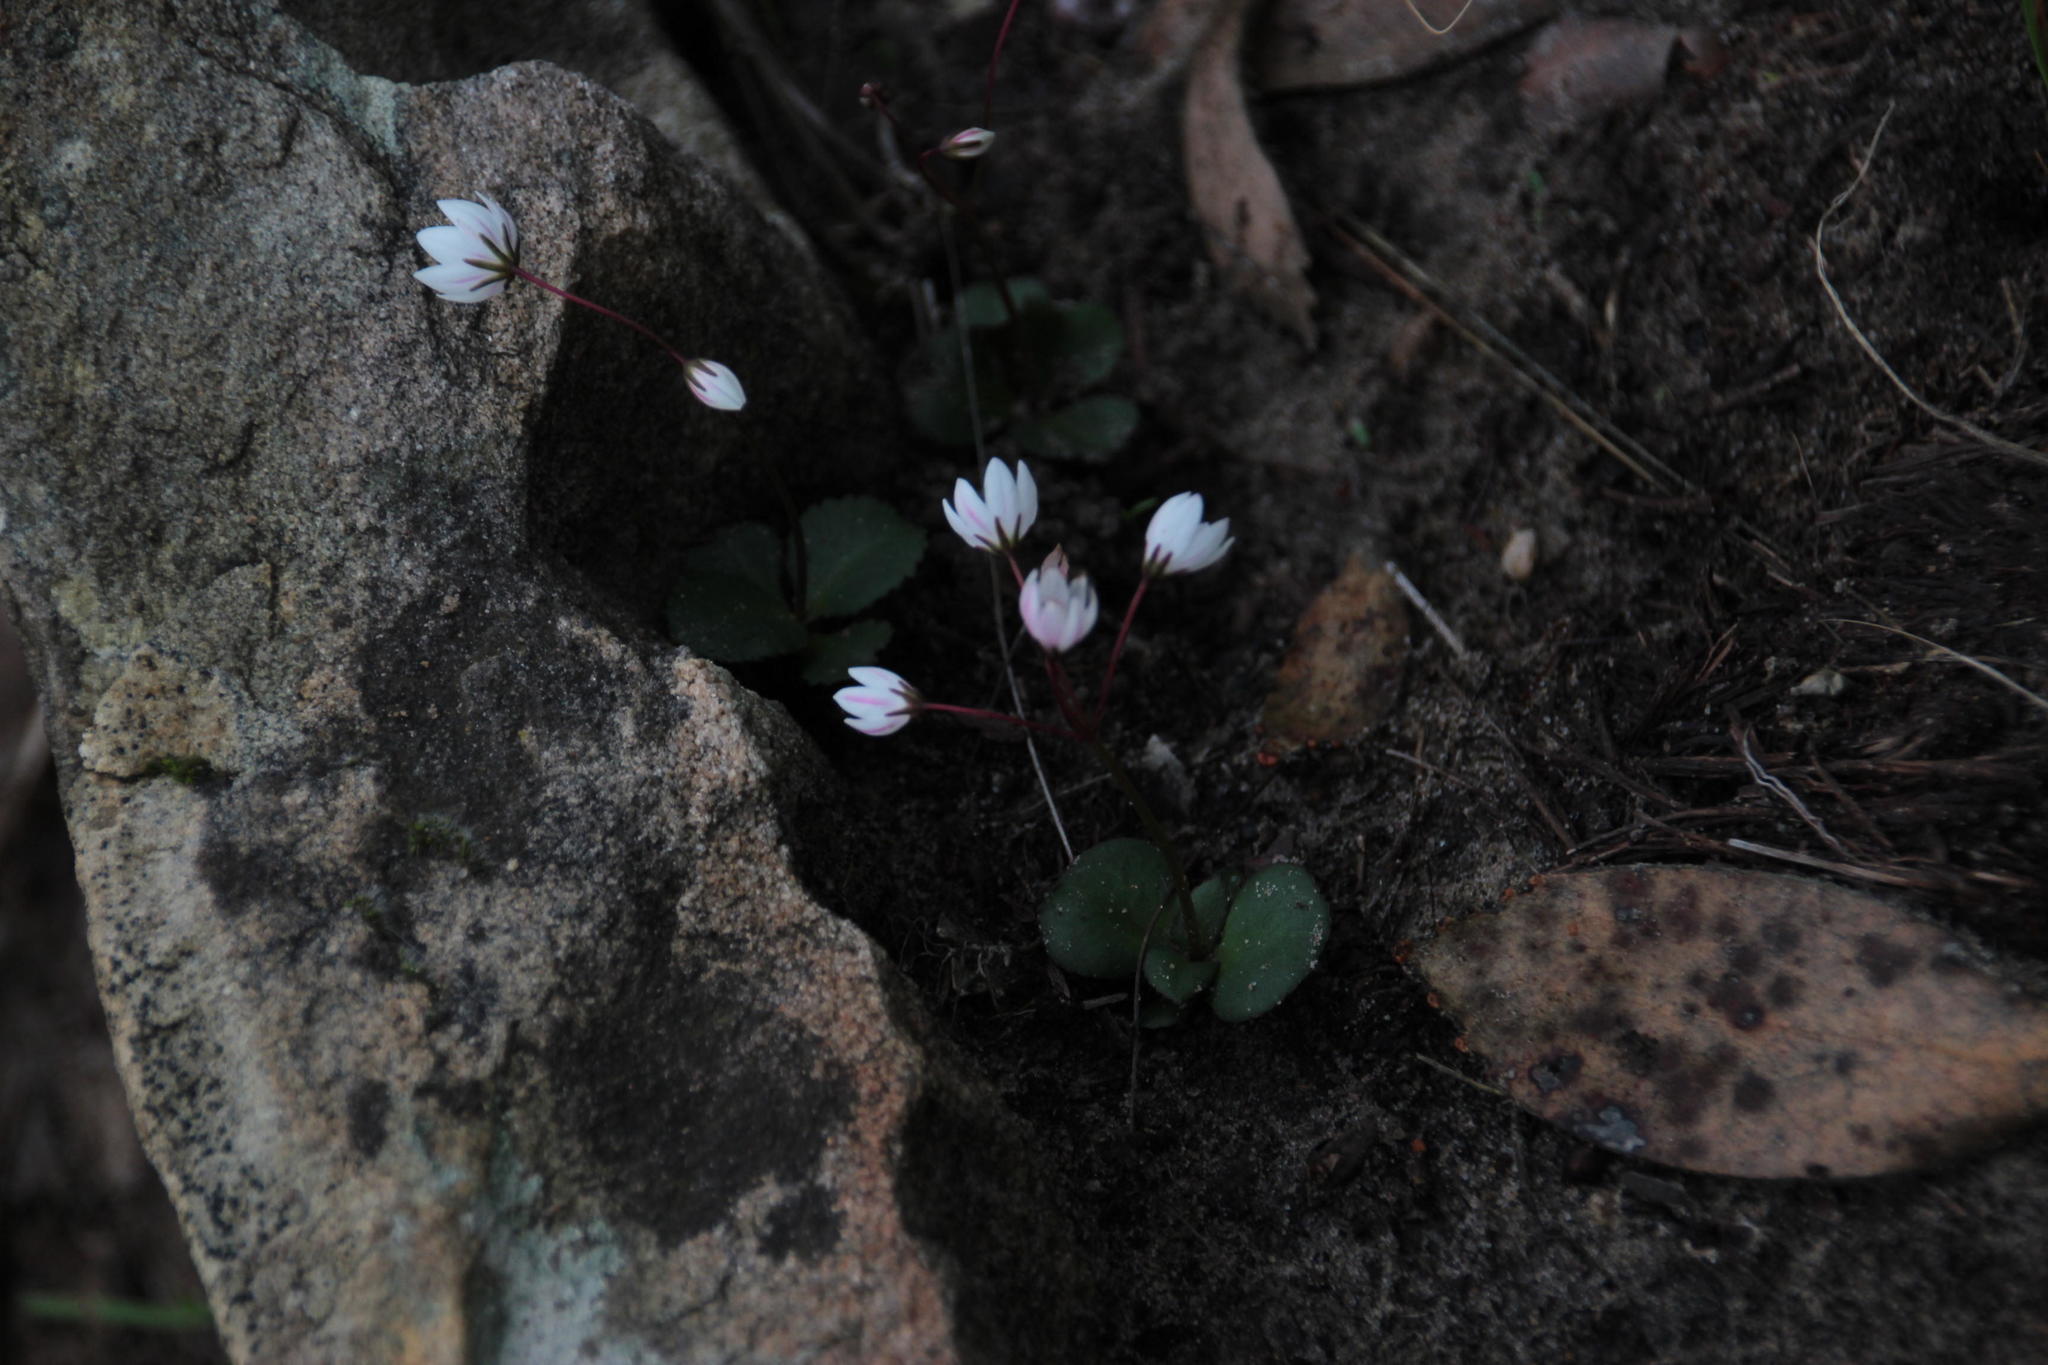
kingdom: Plantae
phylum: Tracheophyta
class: Magnoliopsida
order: Saxifragales
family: Crassulaceae
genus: Crassula
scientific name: Crassula capensis
